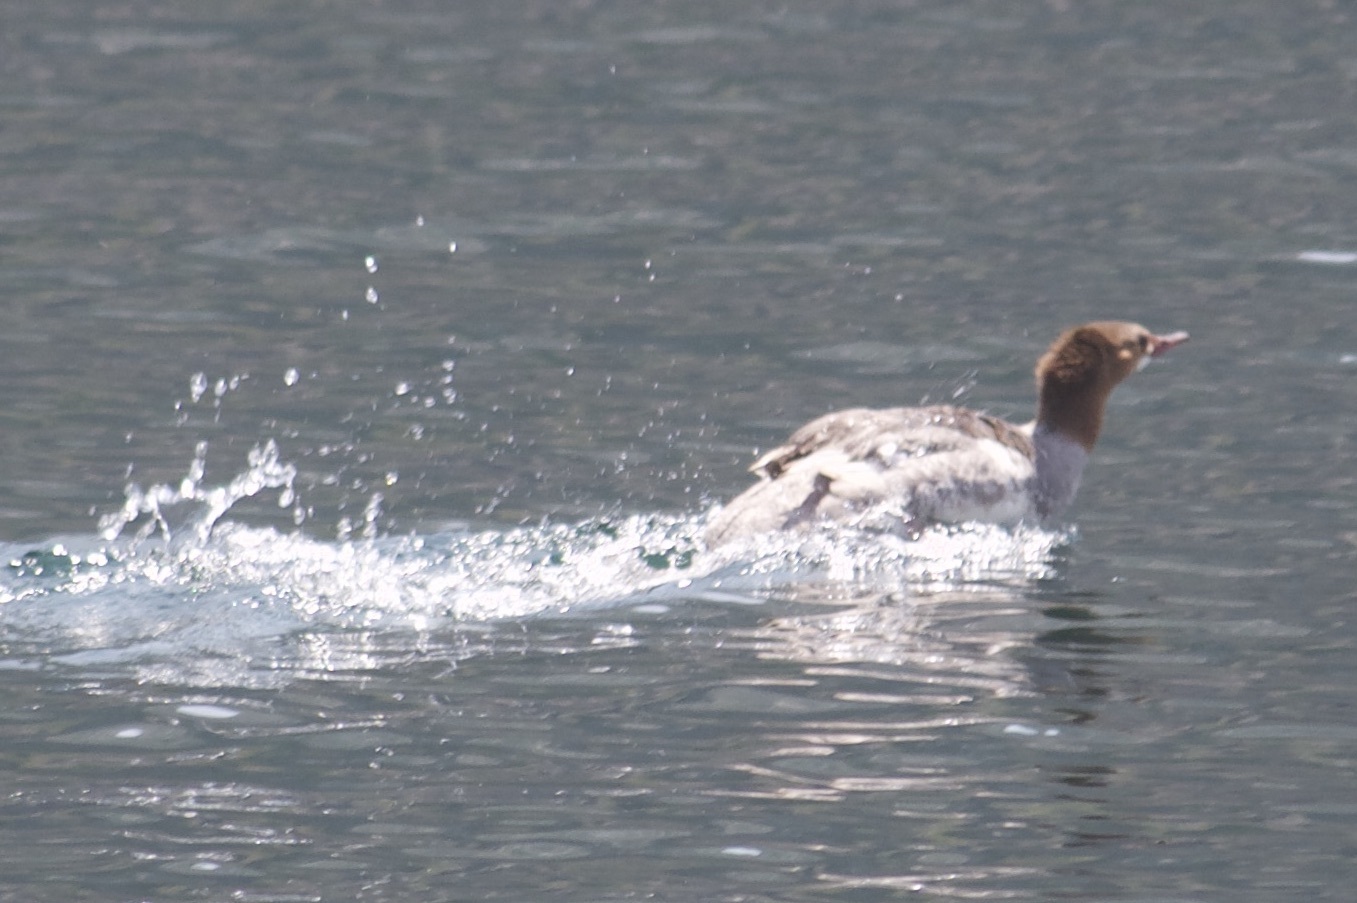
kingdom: Animalia
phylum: Chordata
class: Aves
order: Anseriformes
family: Anatidae
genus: Mergus
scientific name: Mergus merganser
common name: Common merganser
